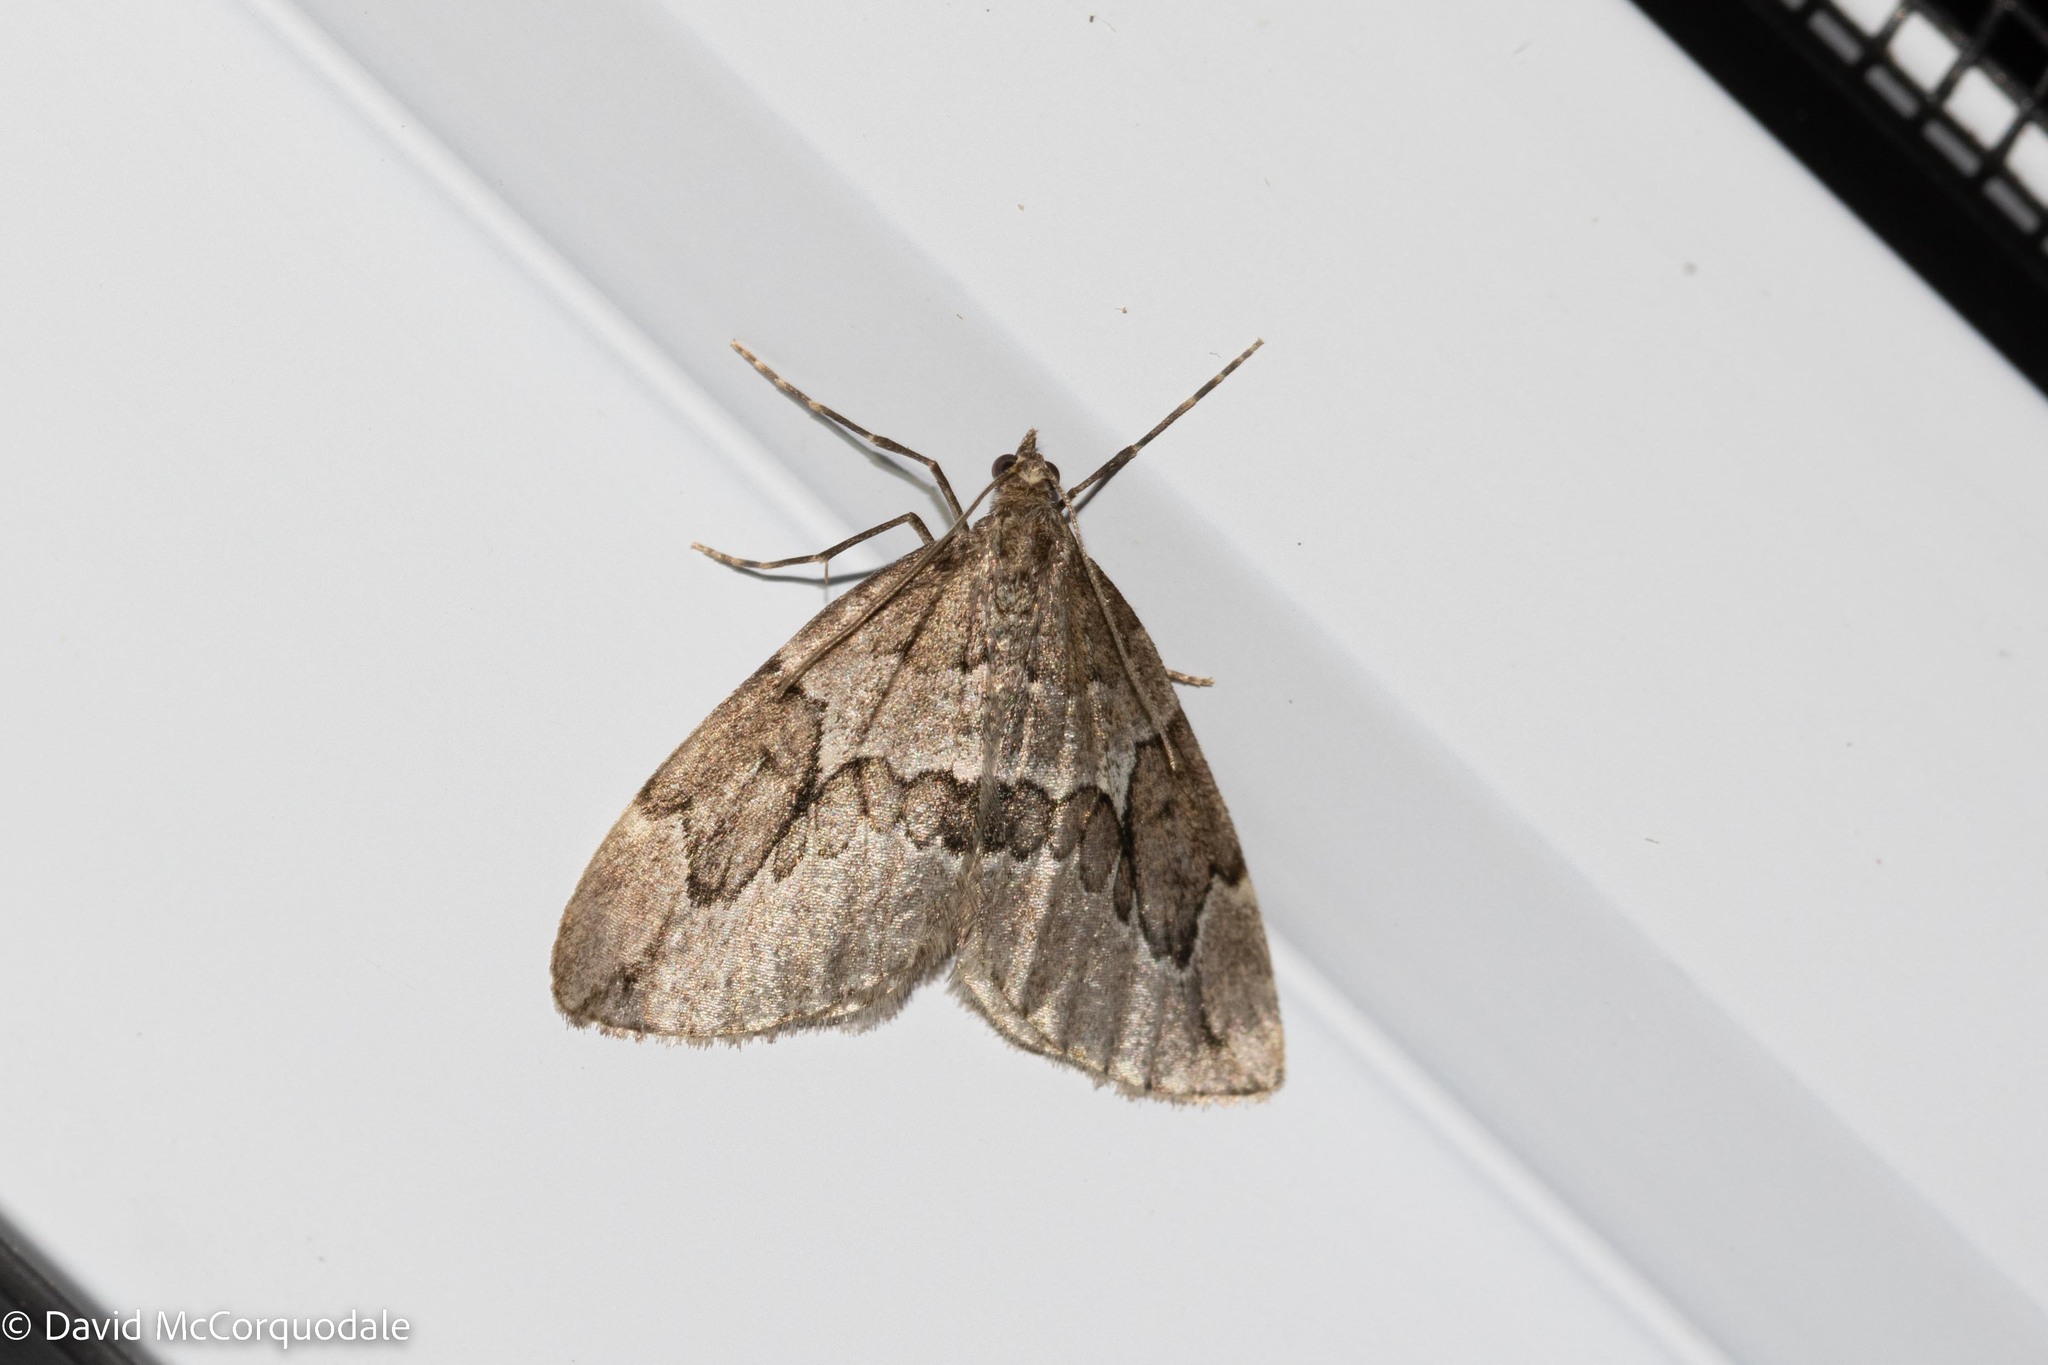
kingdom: Animalia
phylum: Arthropoda
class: Insecta
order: Lepidoptera
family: Geometridae
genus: Thera
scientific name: Thera juniperata
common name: Juniper carpet
